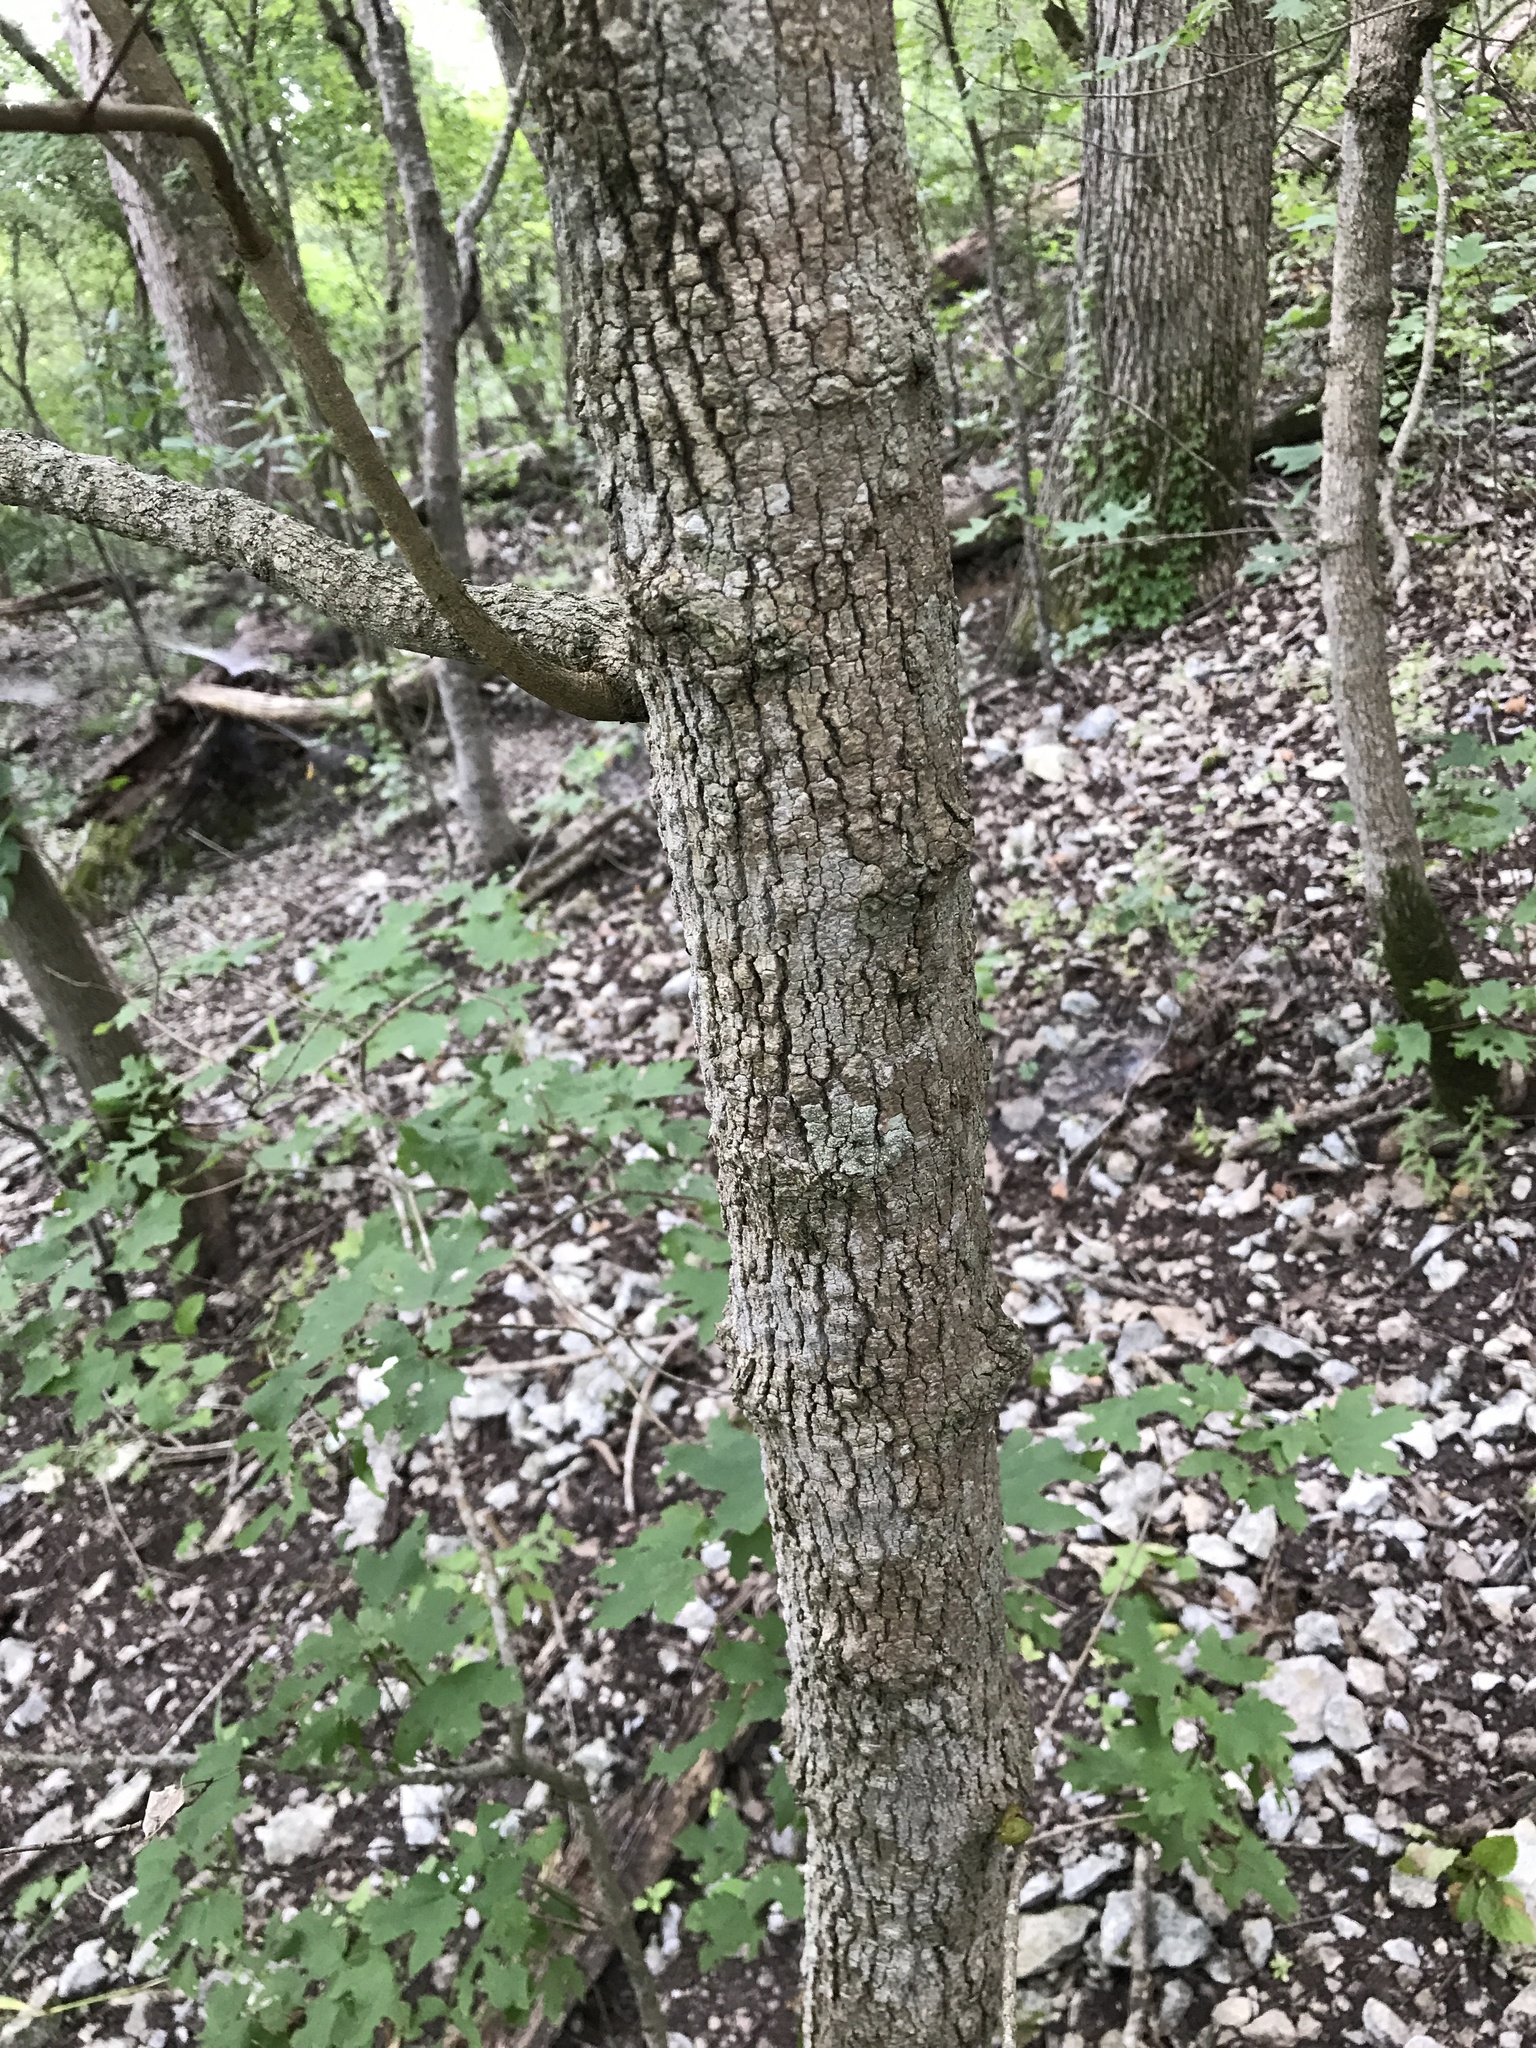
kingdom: Plantae
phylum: Tracheophyta
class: Magnoliopsida
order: Sapindales
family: Sapindaceae
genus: Acer
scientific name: Acer grandidentatum
